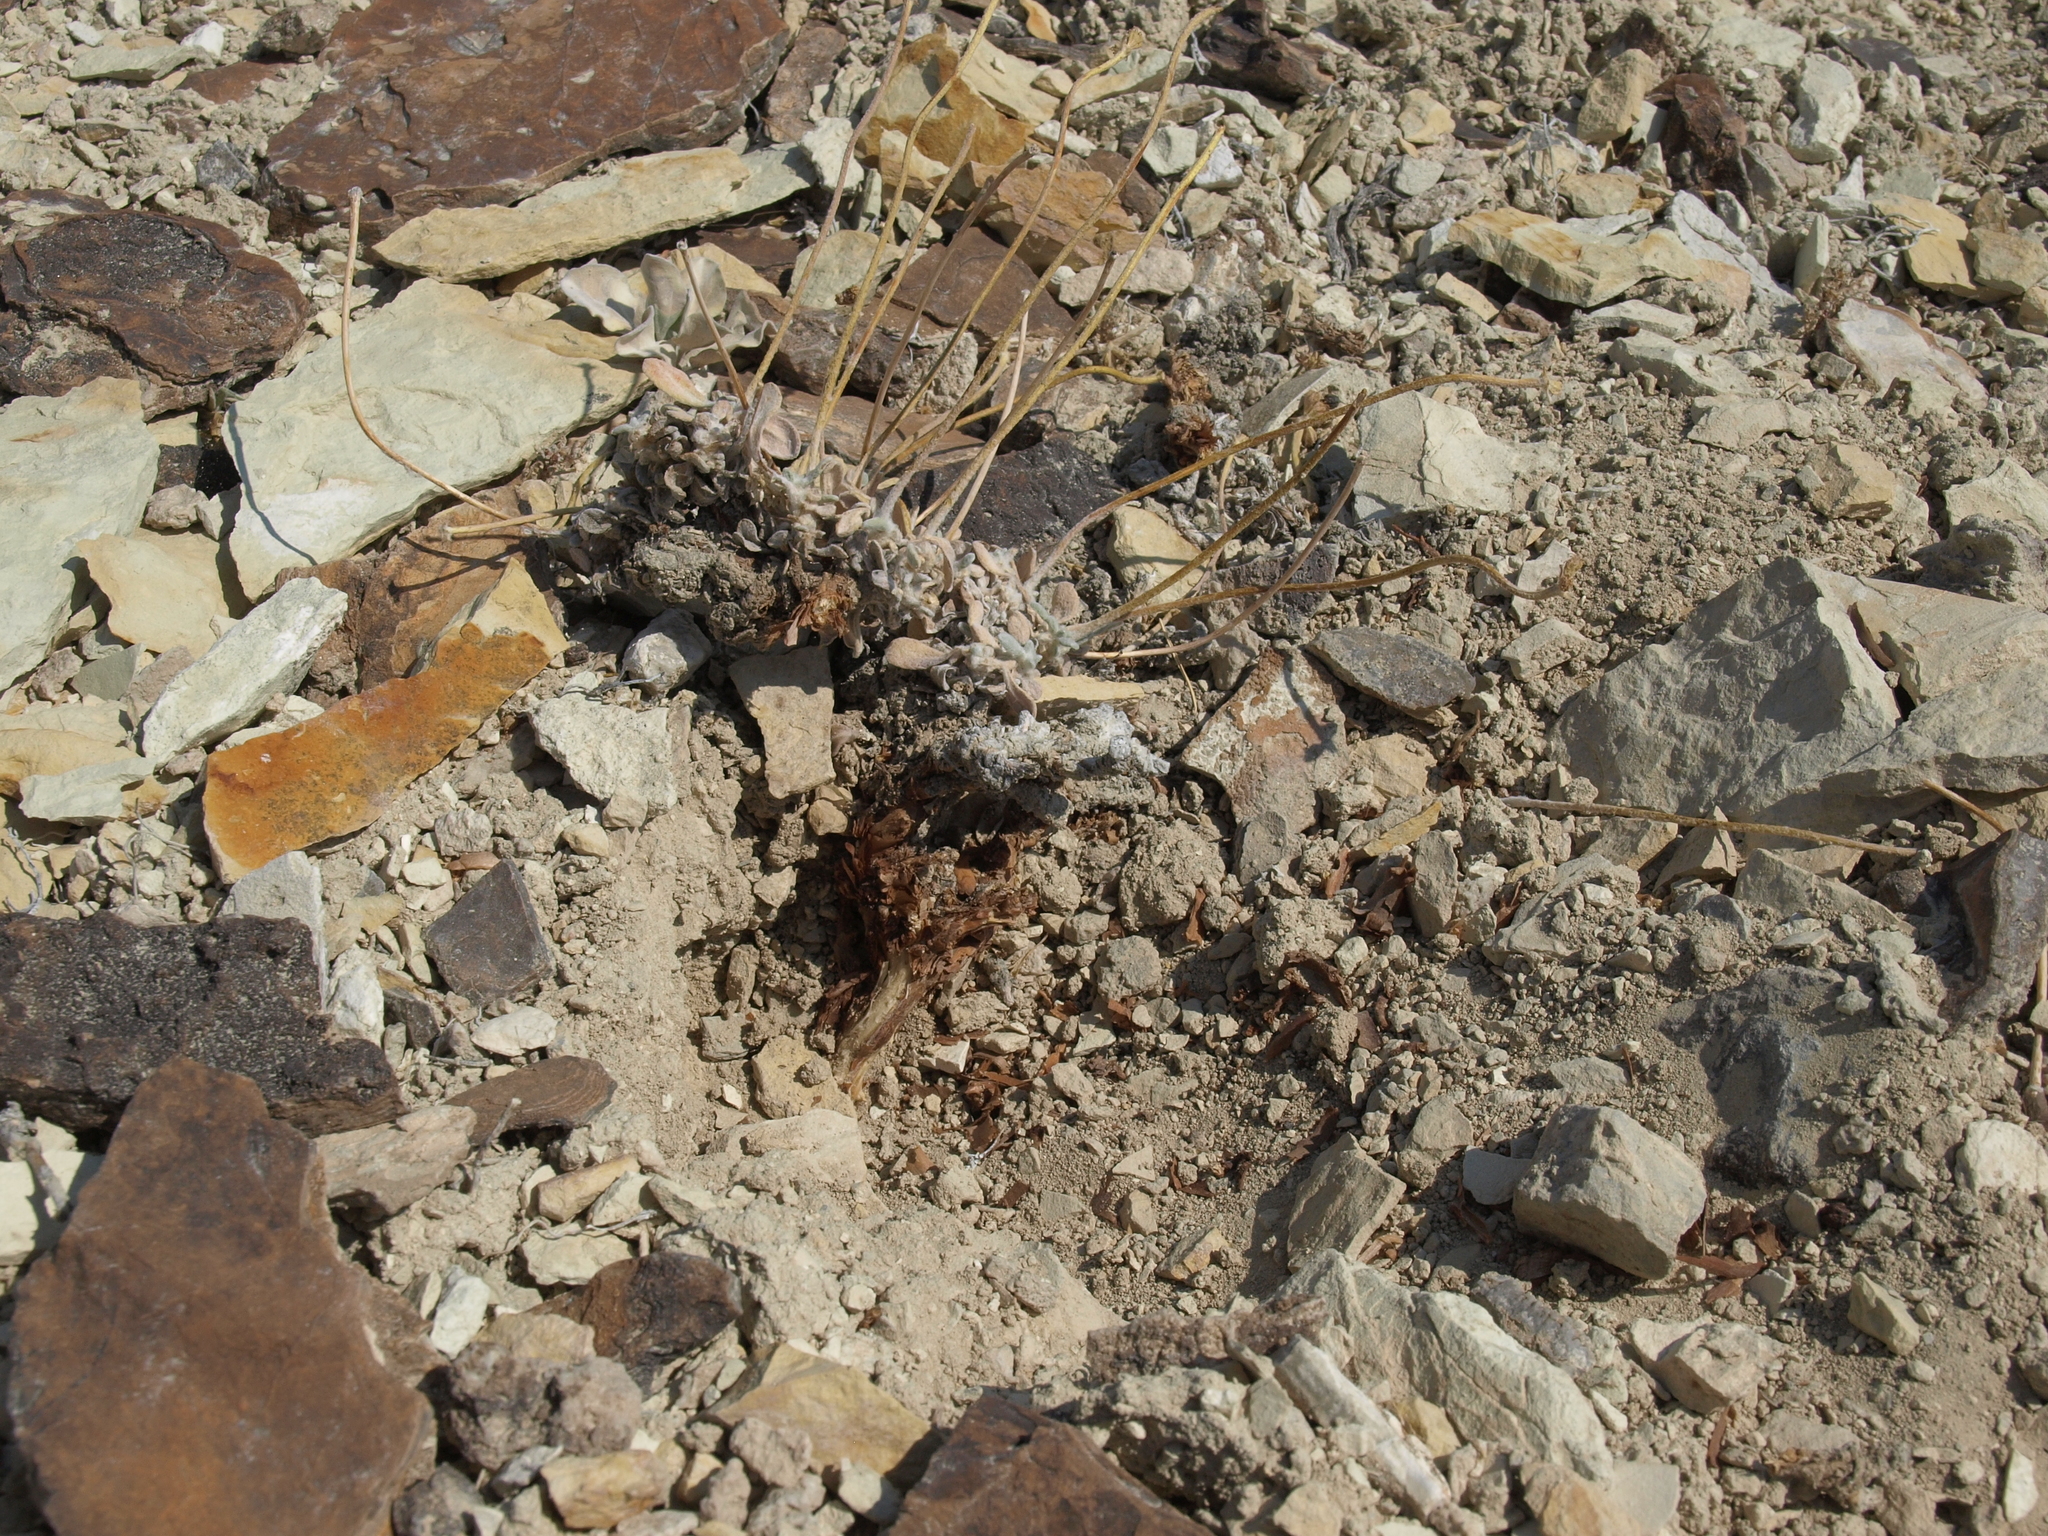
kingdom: Plantae
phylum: Tracheophyta
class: Magnoliopsida
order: Caryophyllales
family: Polygonaceae
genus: Eriogonum
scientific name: Eriogonum tiehmii
